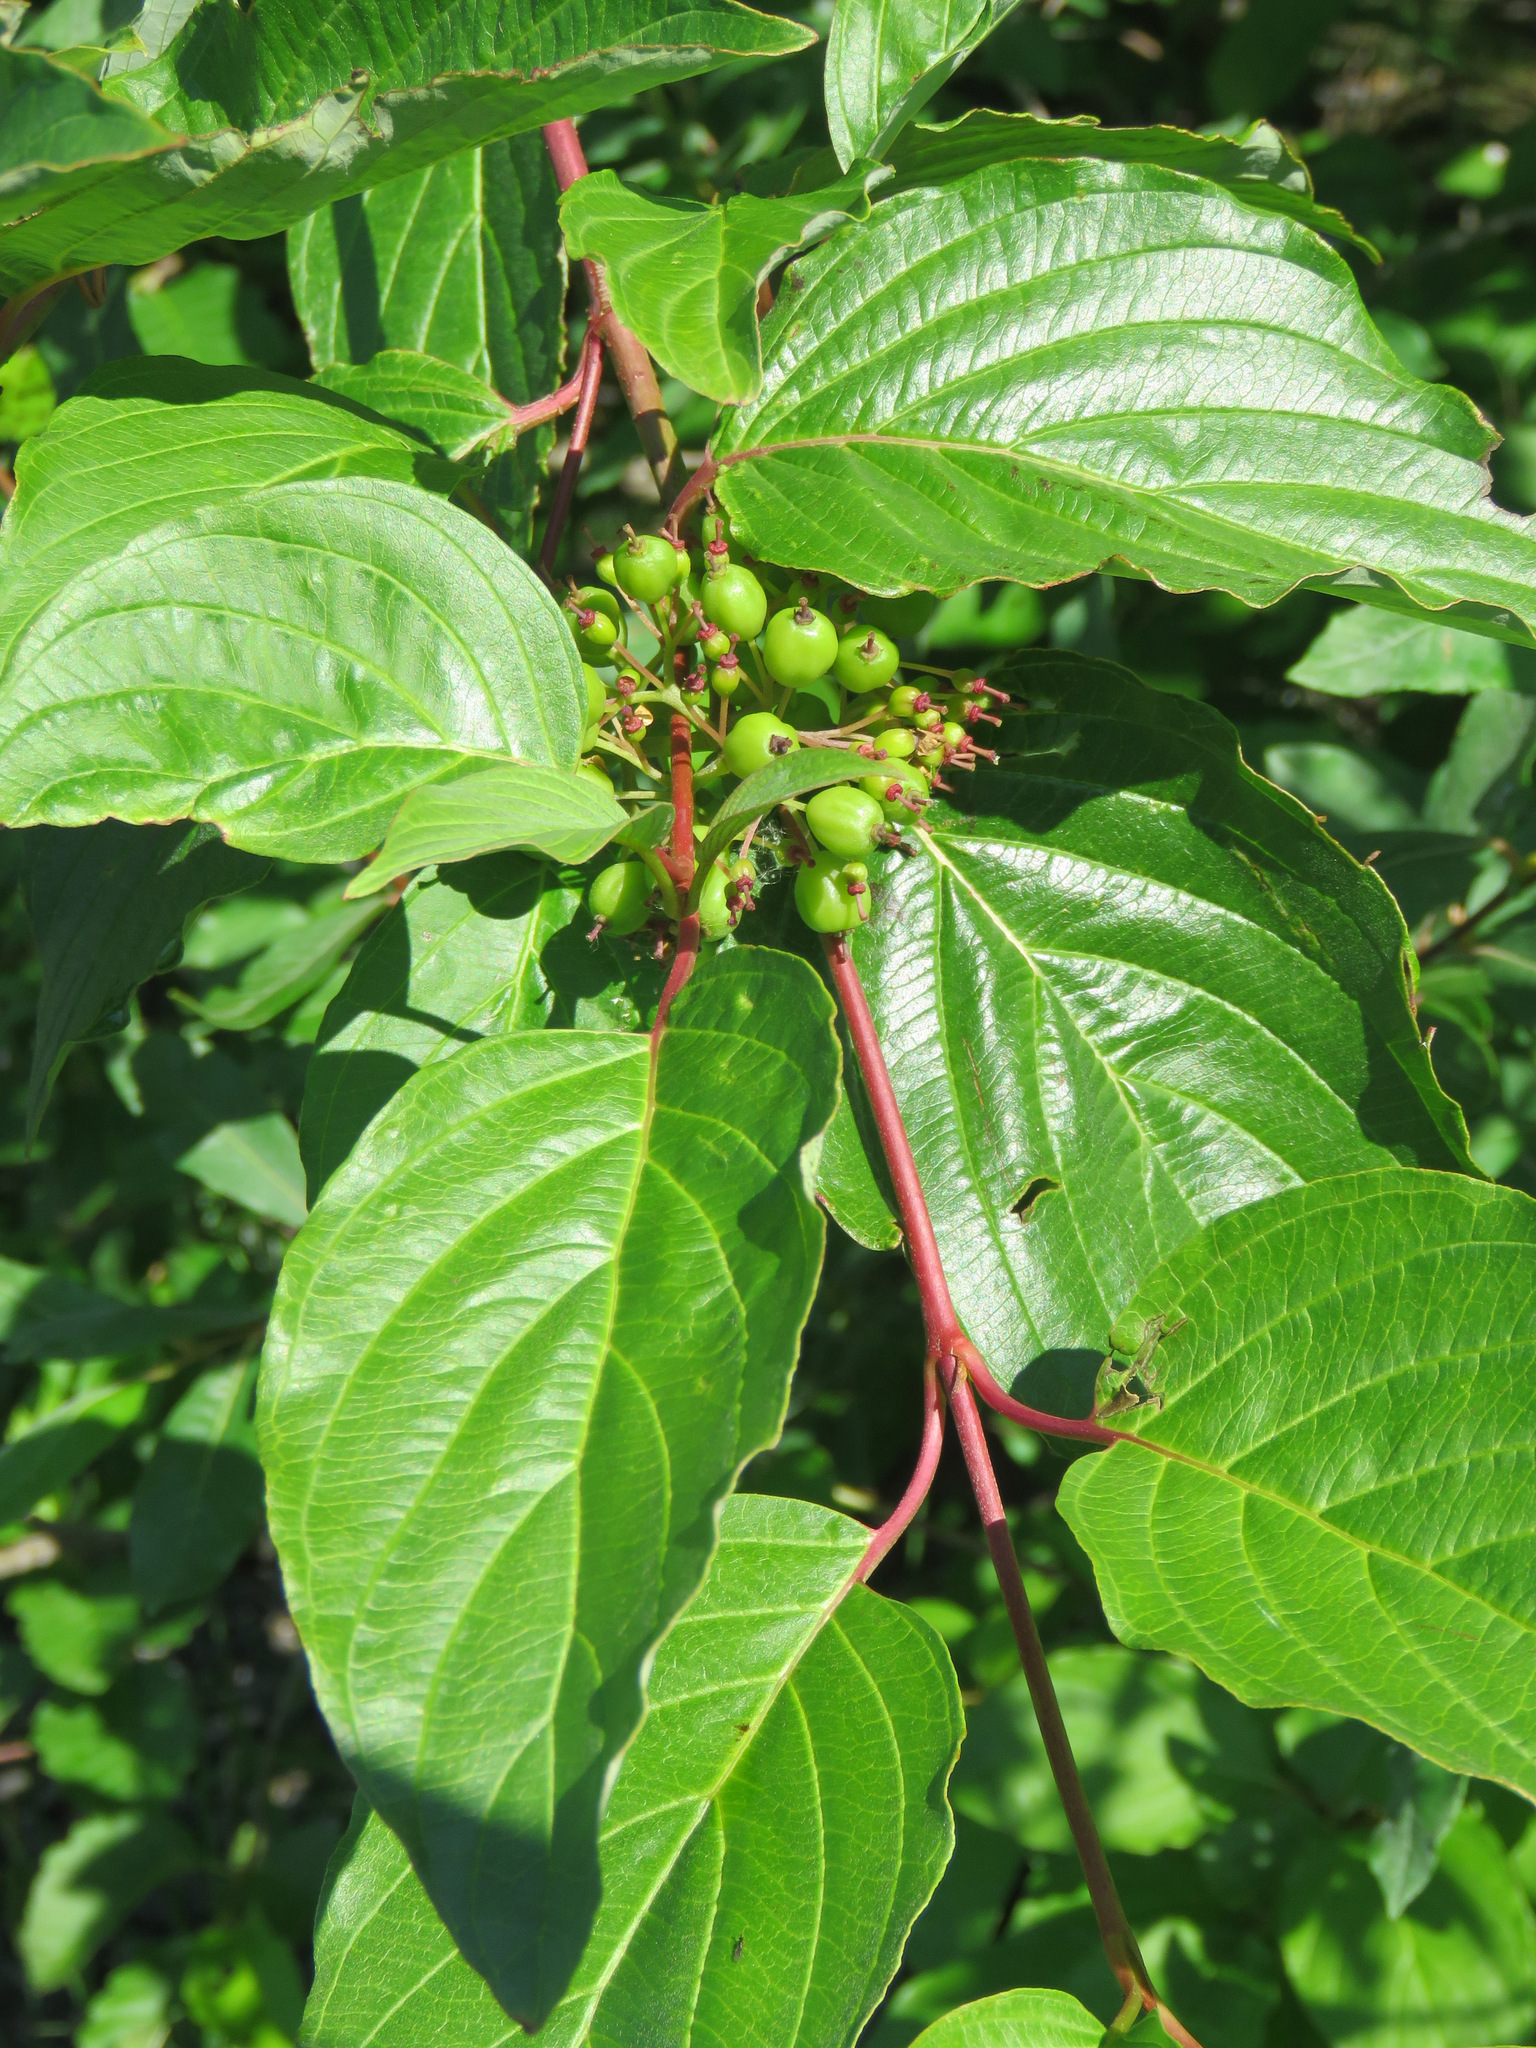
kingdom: Plantae
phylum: Tracheophyta
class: Magnoliopsida
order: Cornales
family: Cornaceae
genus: Cornus
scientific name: Cornus sericea
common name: Red-osier dogwood
